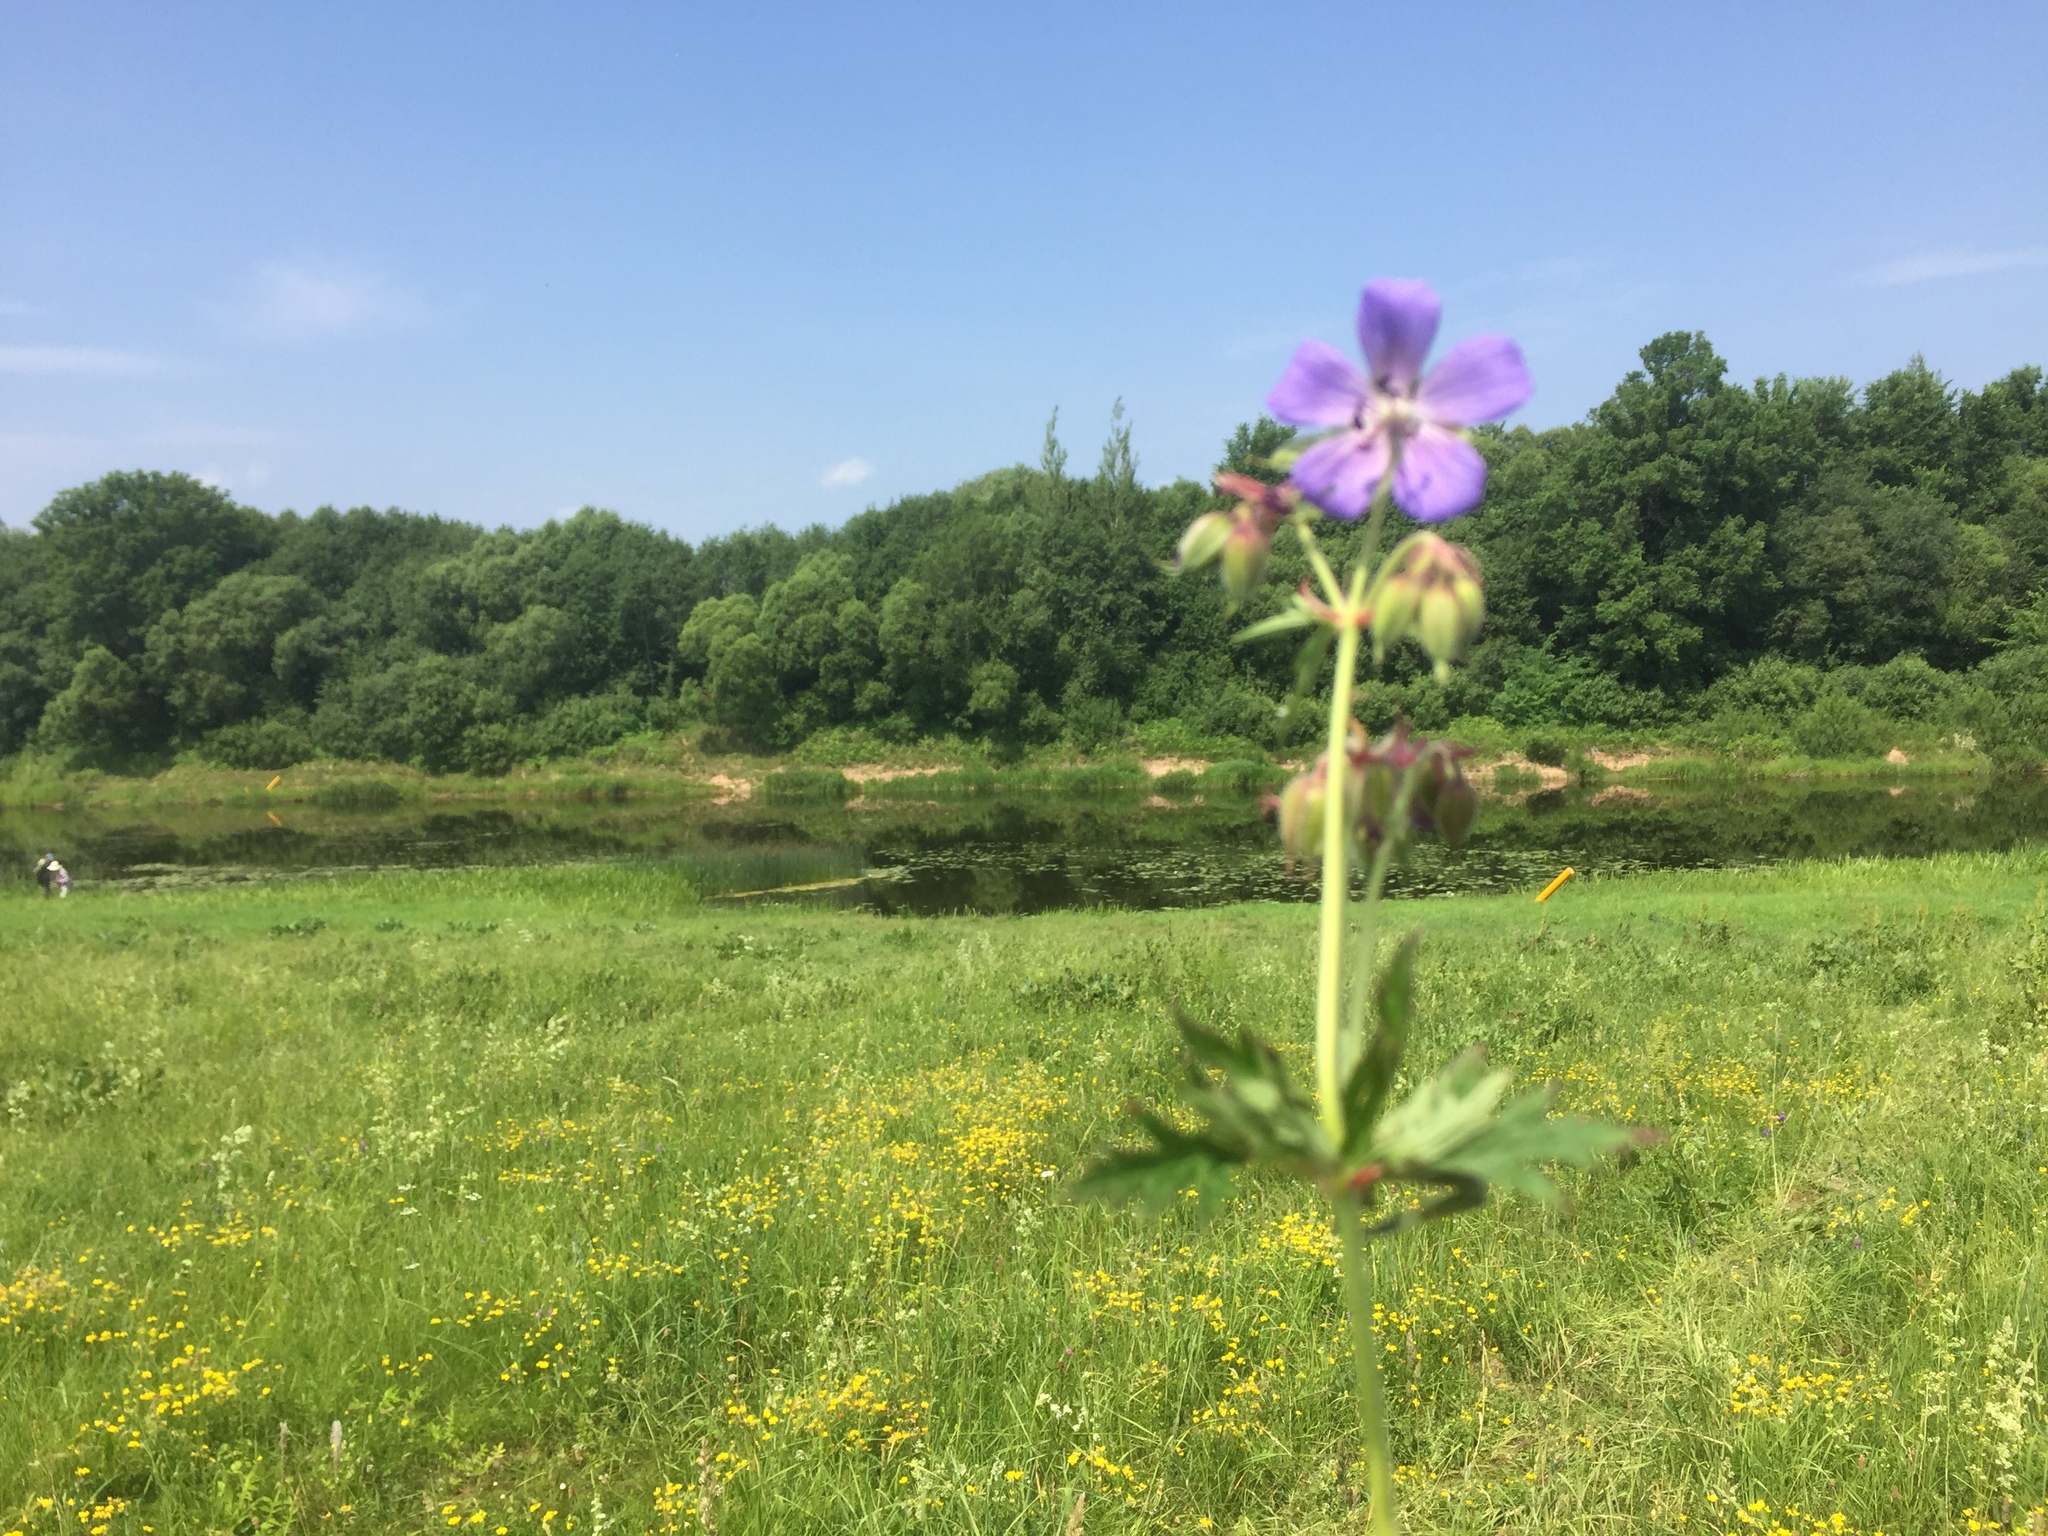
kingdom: Plantae
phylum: Tracheophyta
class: Magnoliopsida
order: Geraniales
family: Geraniaceae
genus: Geranium
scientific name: Geranium pratense
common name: Meadow crane's-bill
